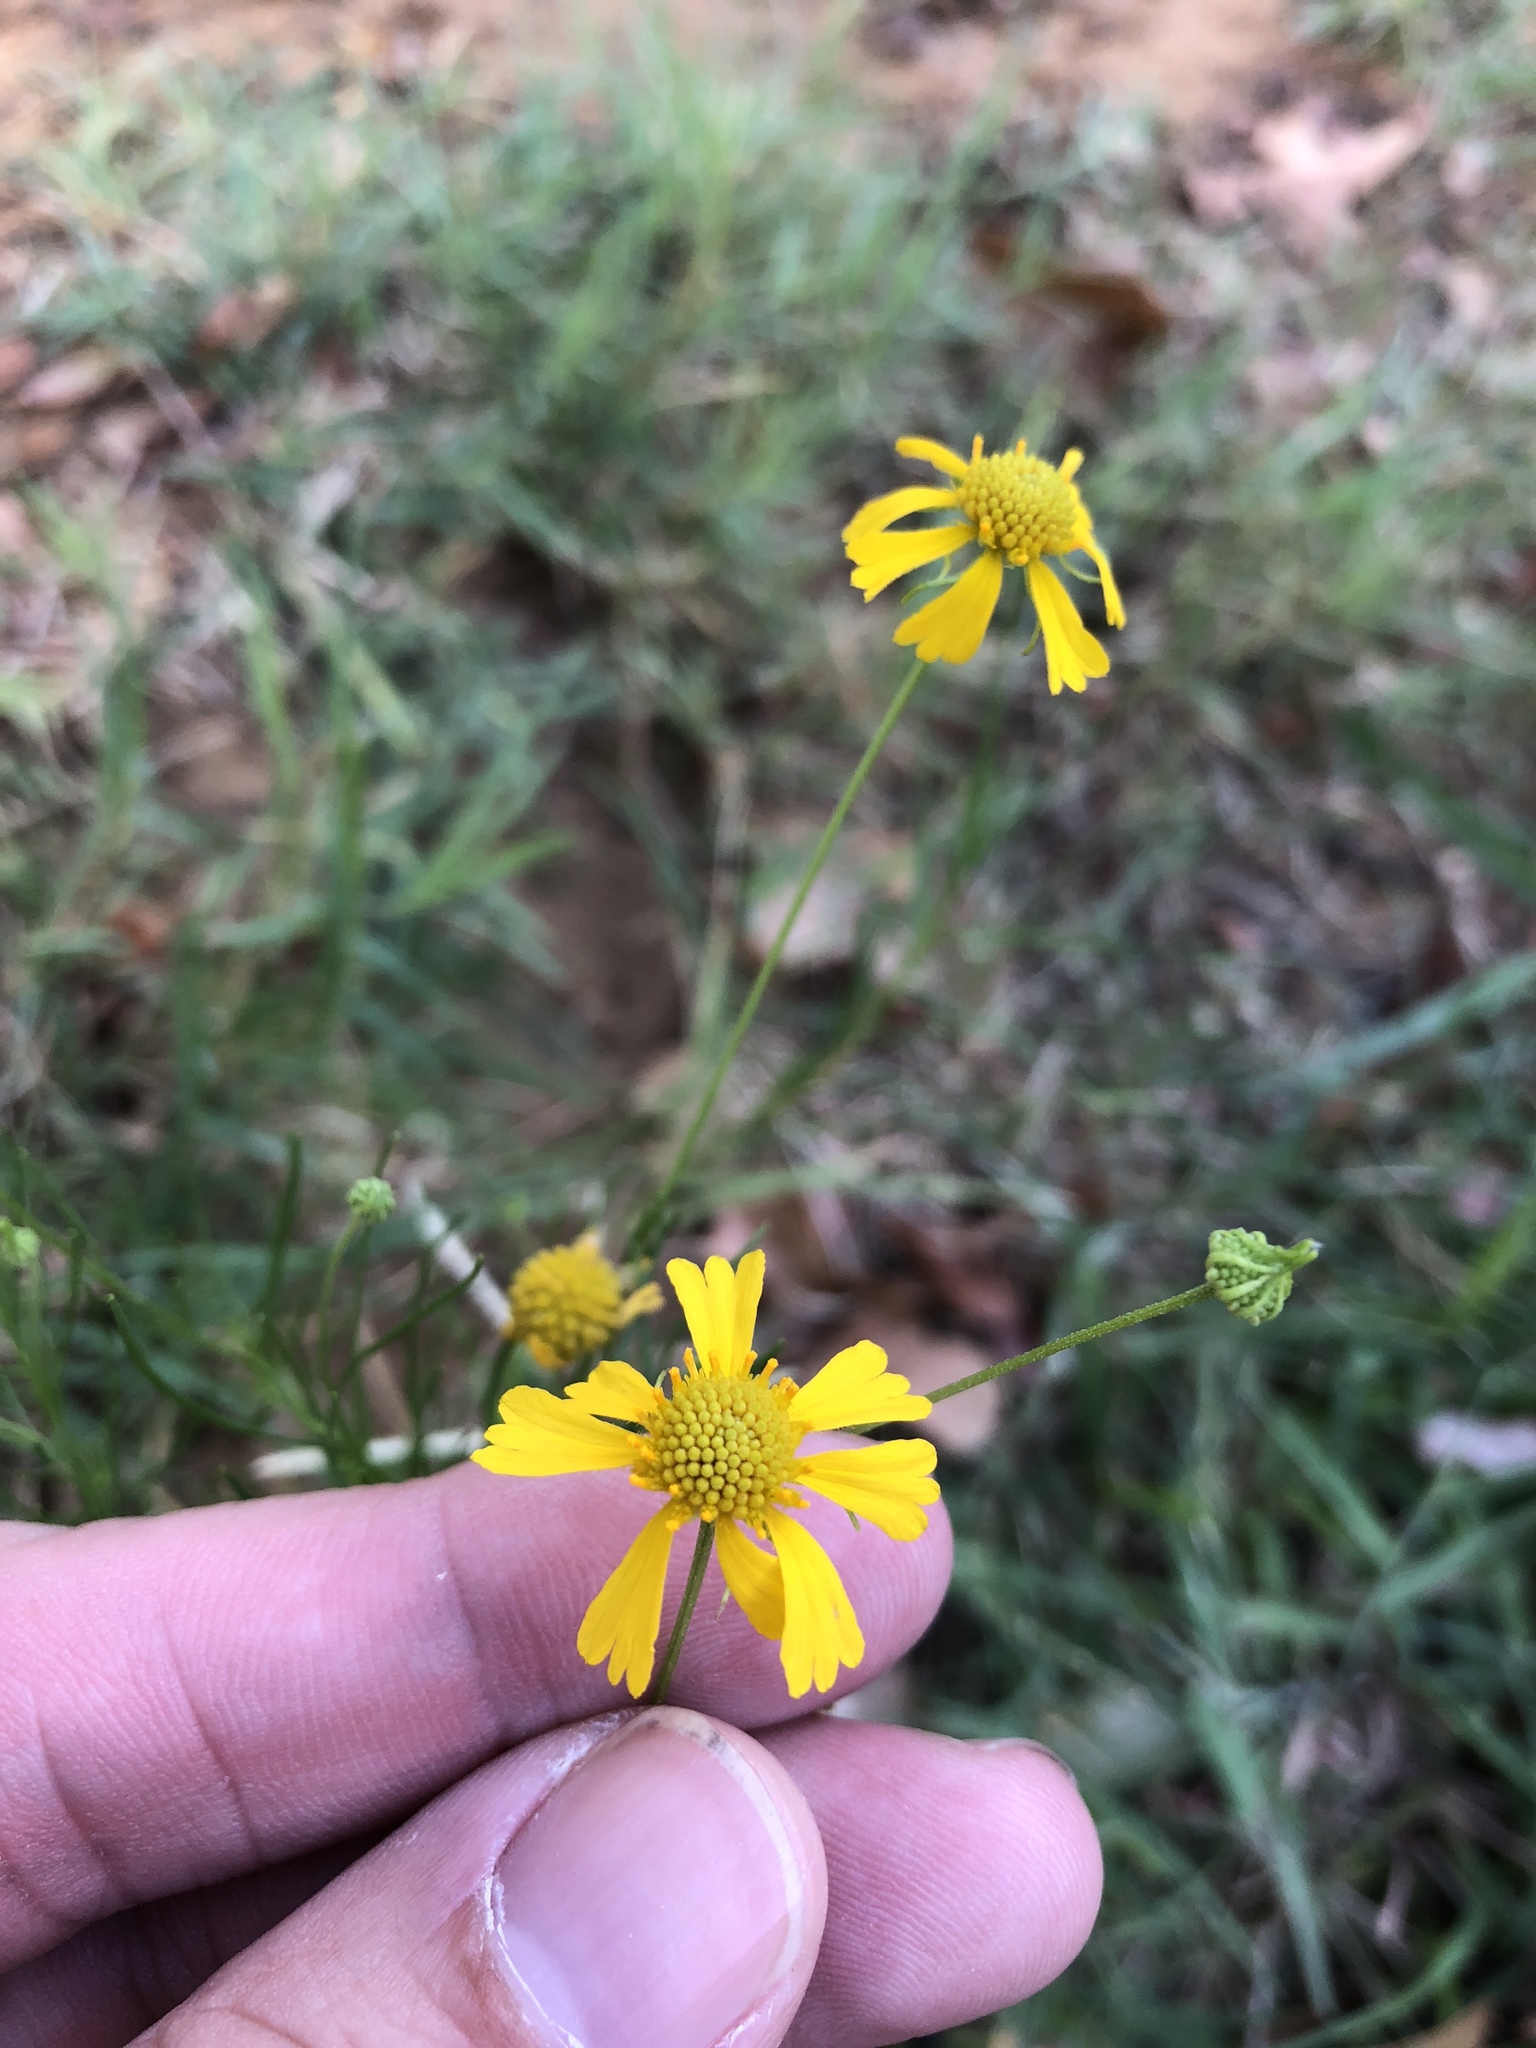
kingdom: Plantae
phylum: Tracheophyta
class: Magnoliopsida
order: Asterales
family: Asteraceae
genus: Helenium
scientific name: Helenium amarum
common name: Bitter sneezeweed
